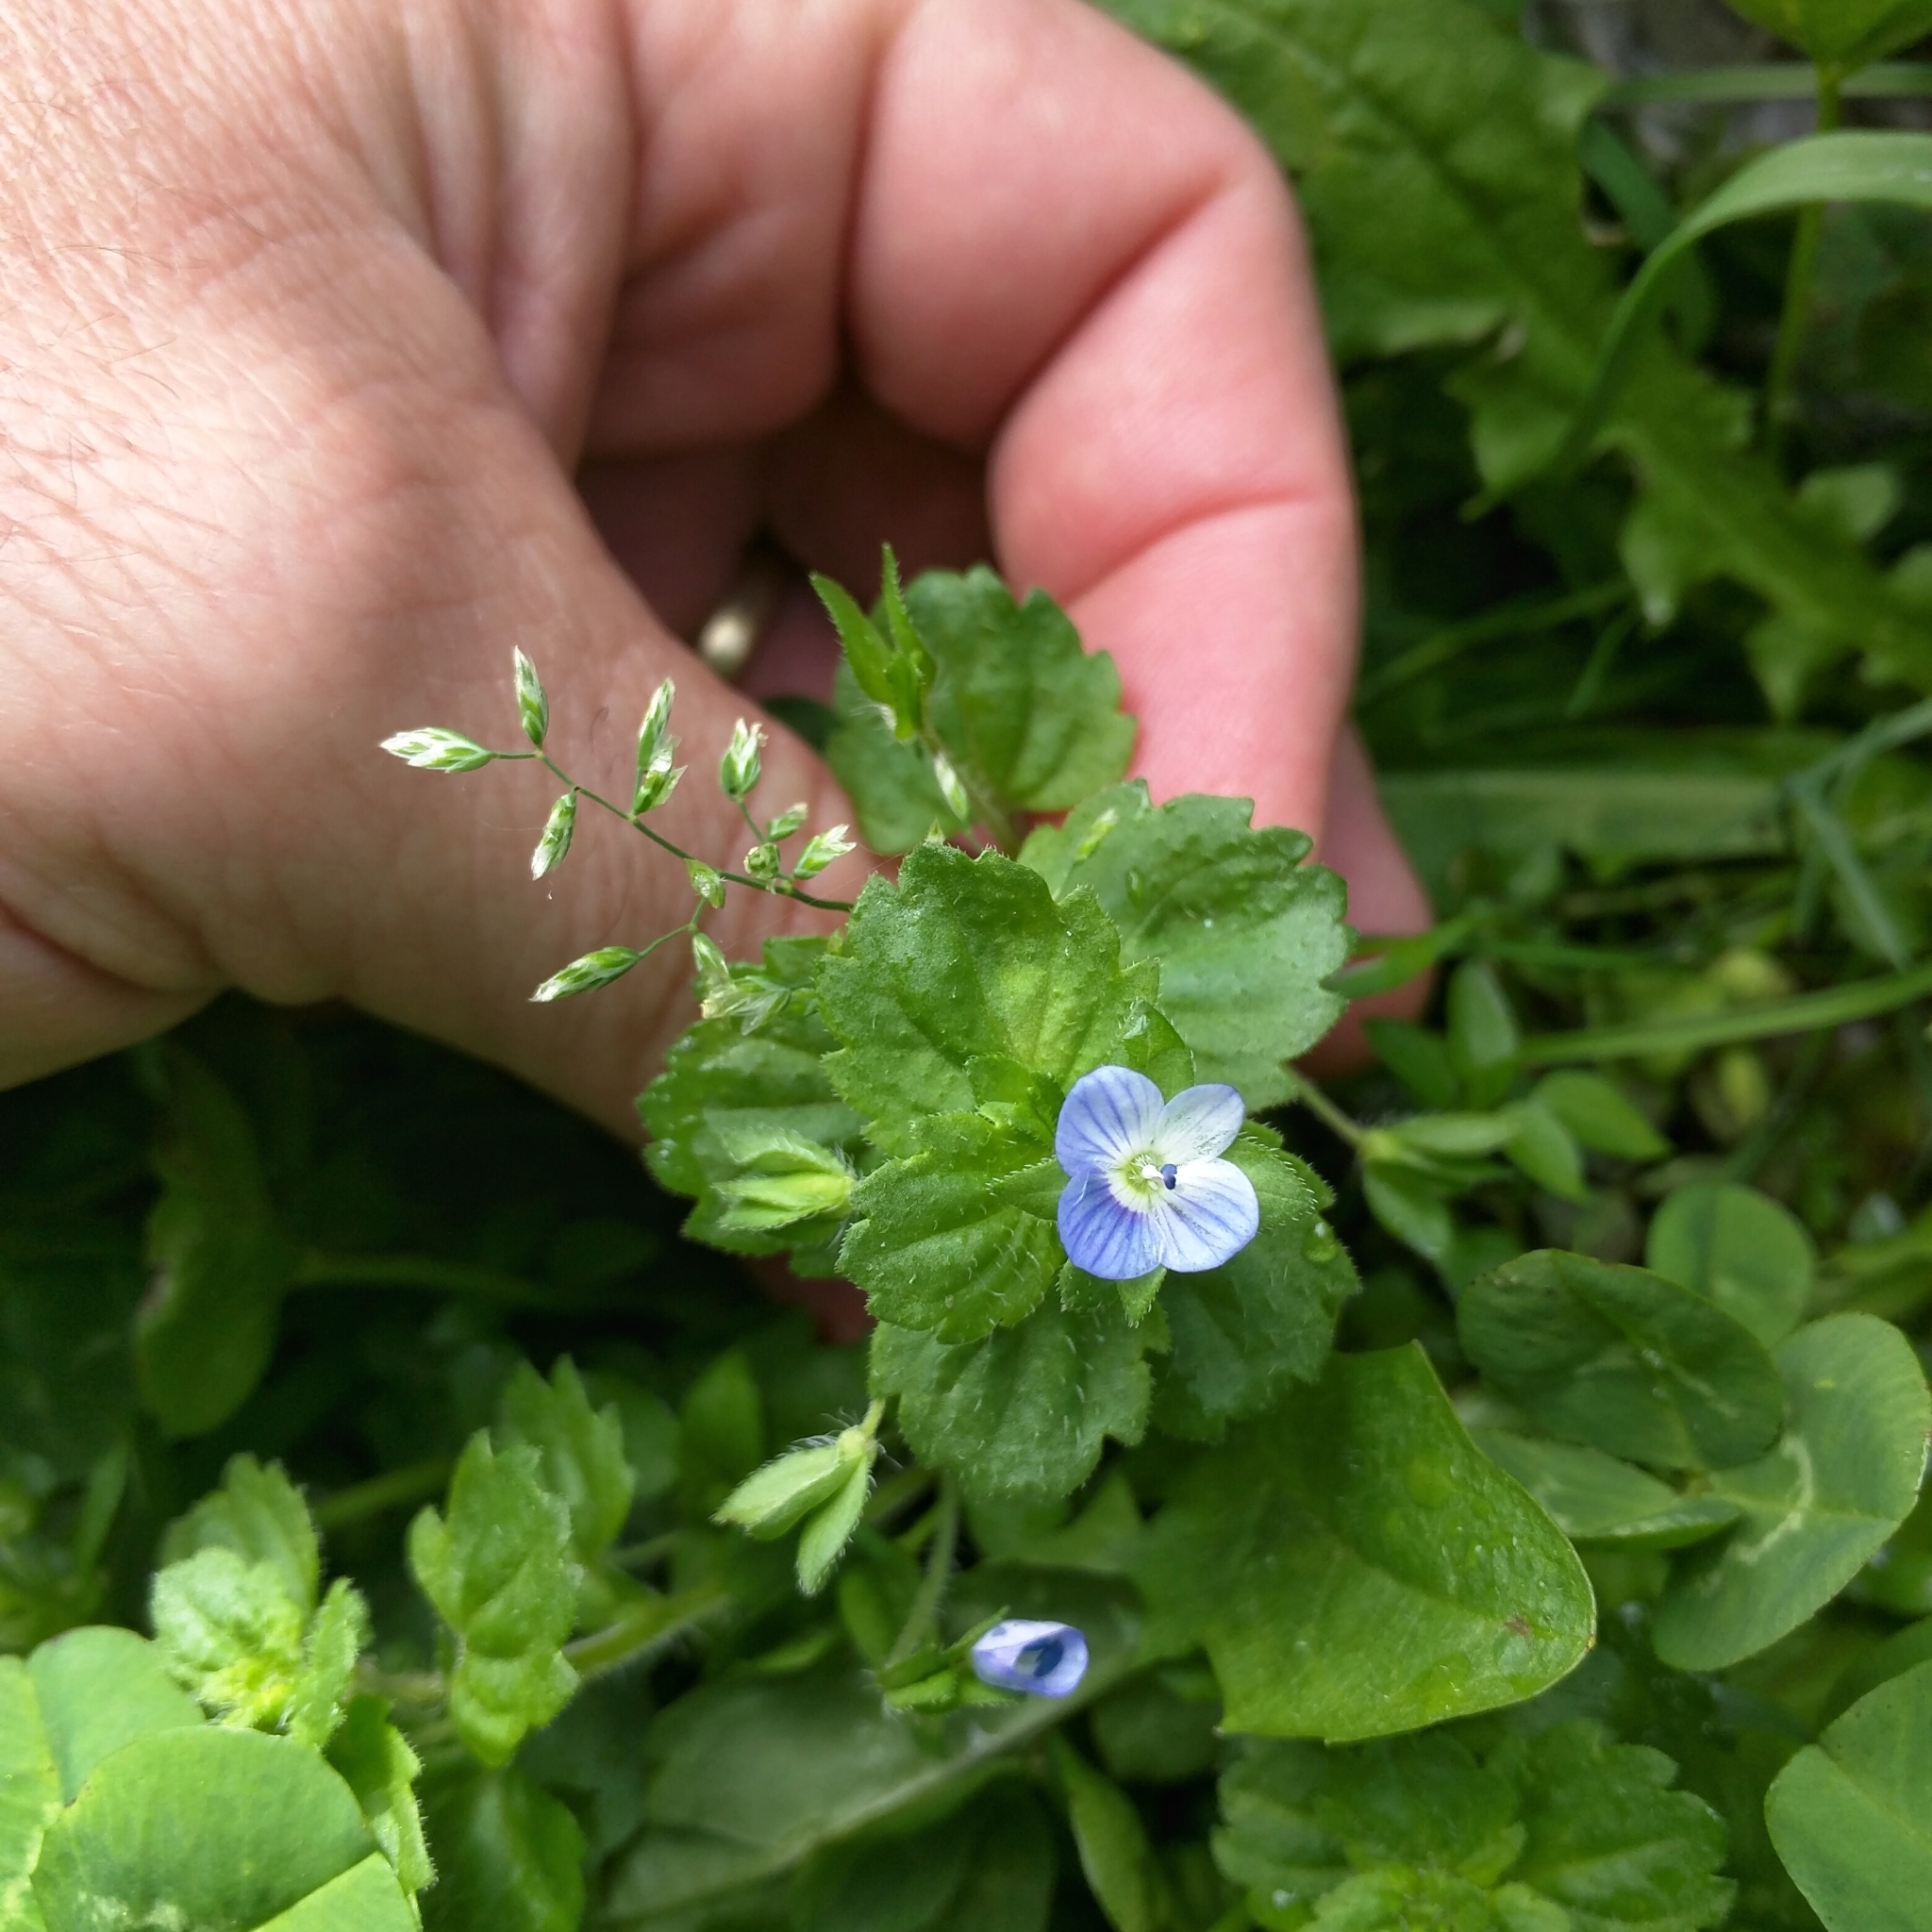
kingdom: Plantae
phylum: Tracheophyta
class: Magnoliopsida
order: Lamiales
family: Plantaginaceae
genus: Veronica
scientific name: Veronica persica
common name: Common field-speedwell
